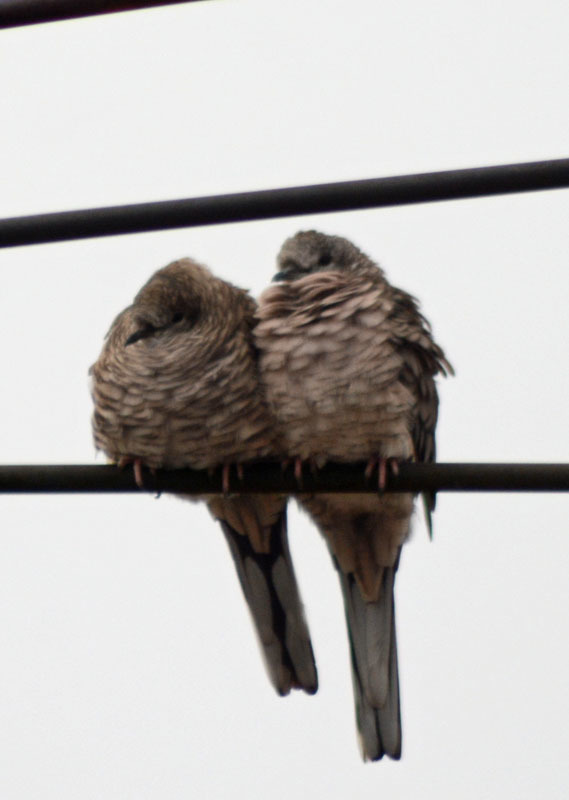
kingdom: Animalia
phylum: Chordata
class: Aves
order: Columbiformes
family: Columbidae
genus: Columbina
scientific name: Columbina inca
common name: Inca dove
